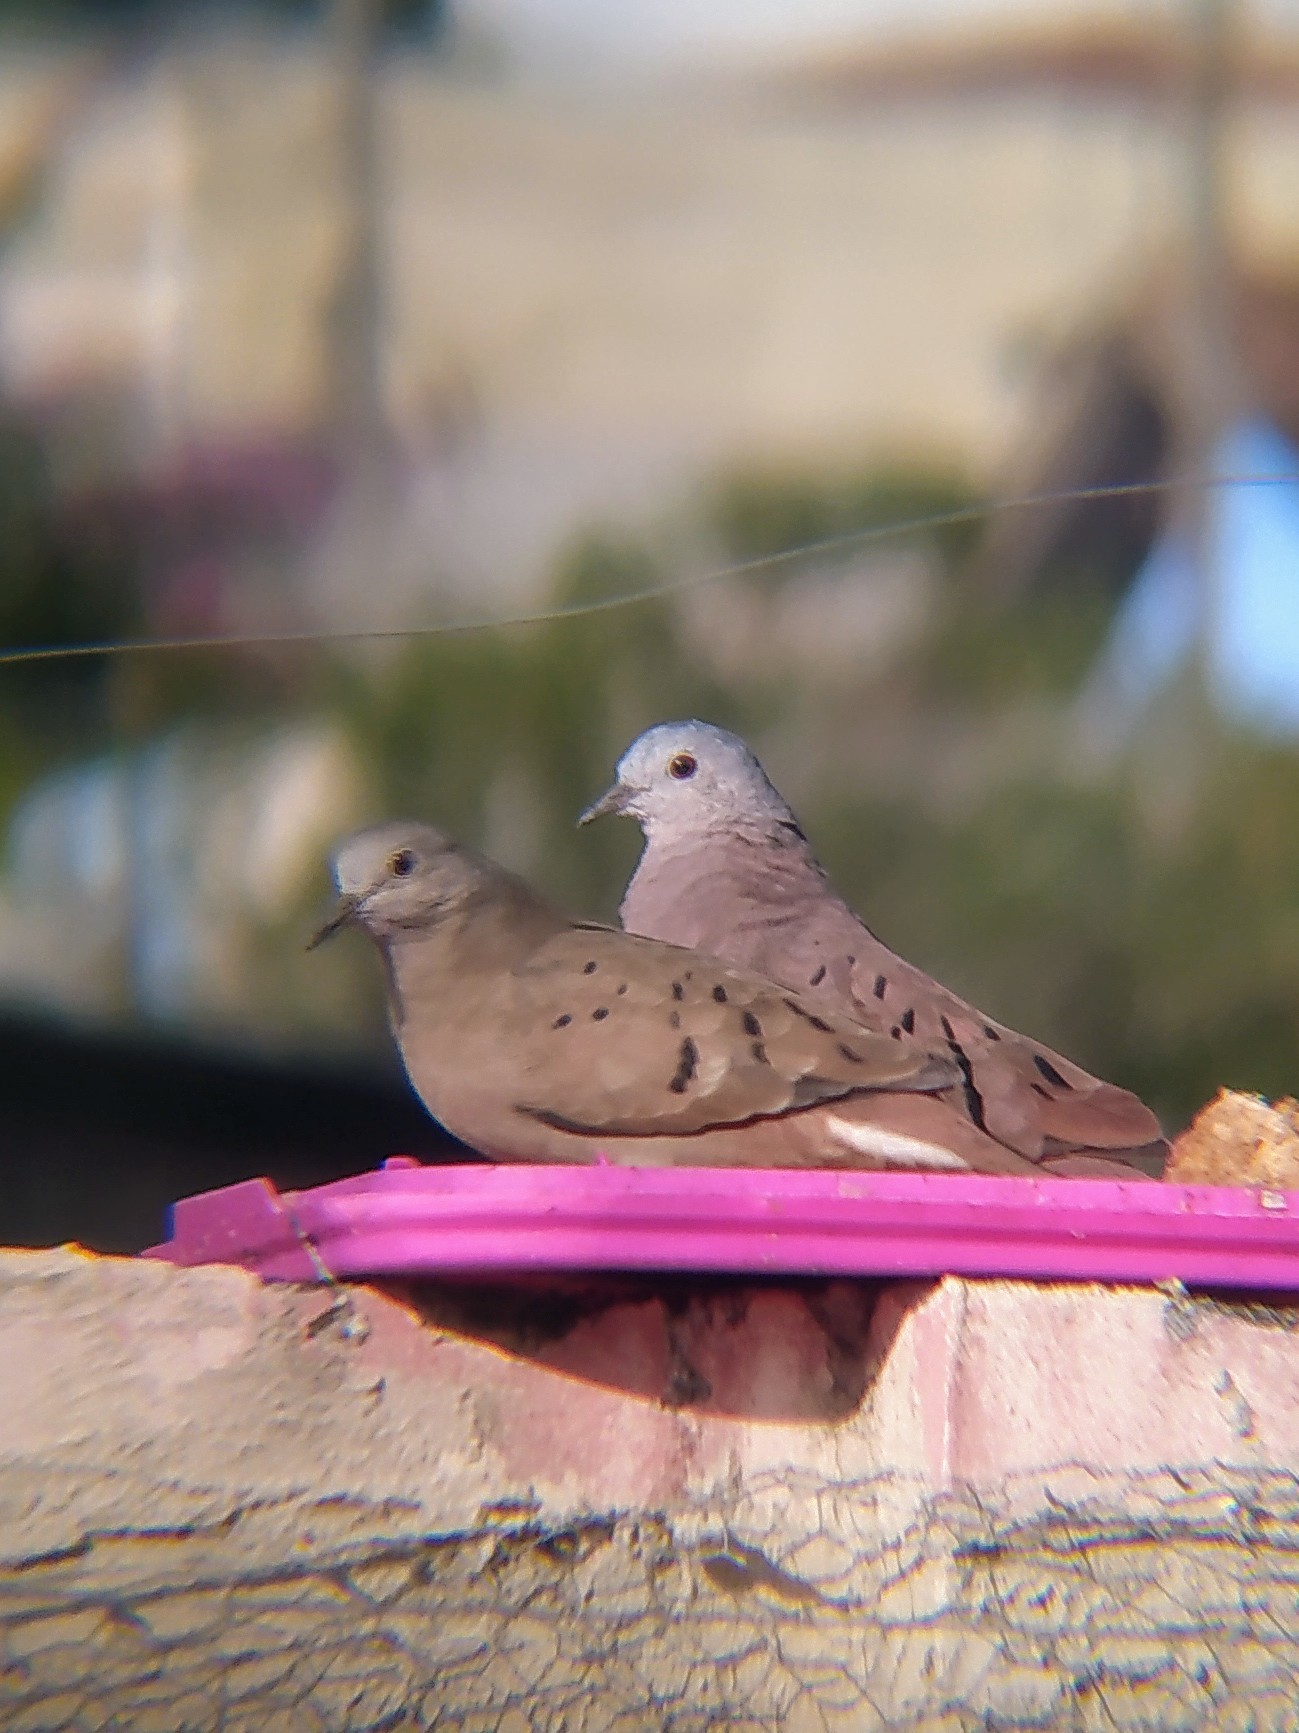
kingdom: Animalia
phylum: Chordata
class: Aves
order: Columbiformes
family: Columbidae
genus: Columbina
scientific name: Columbina talpacoti
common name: Ruddy ground dove
